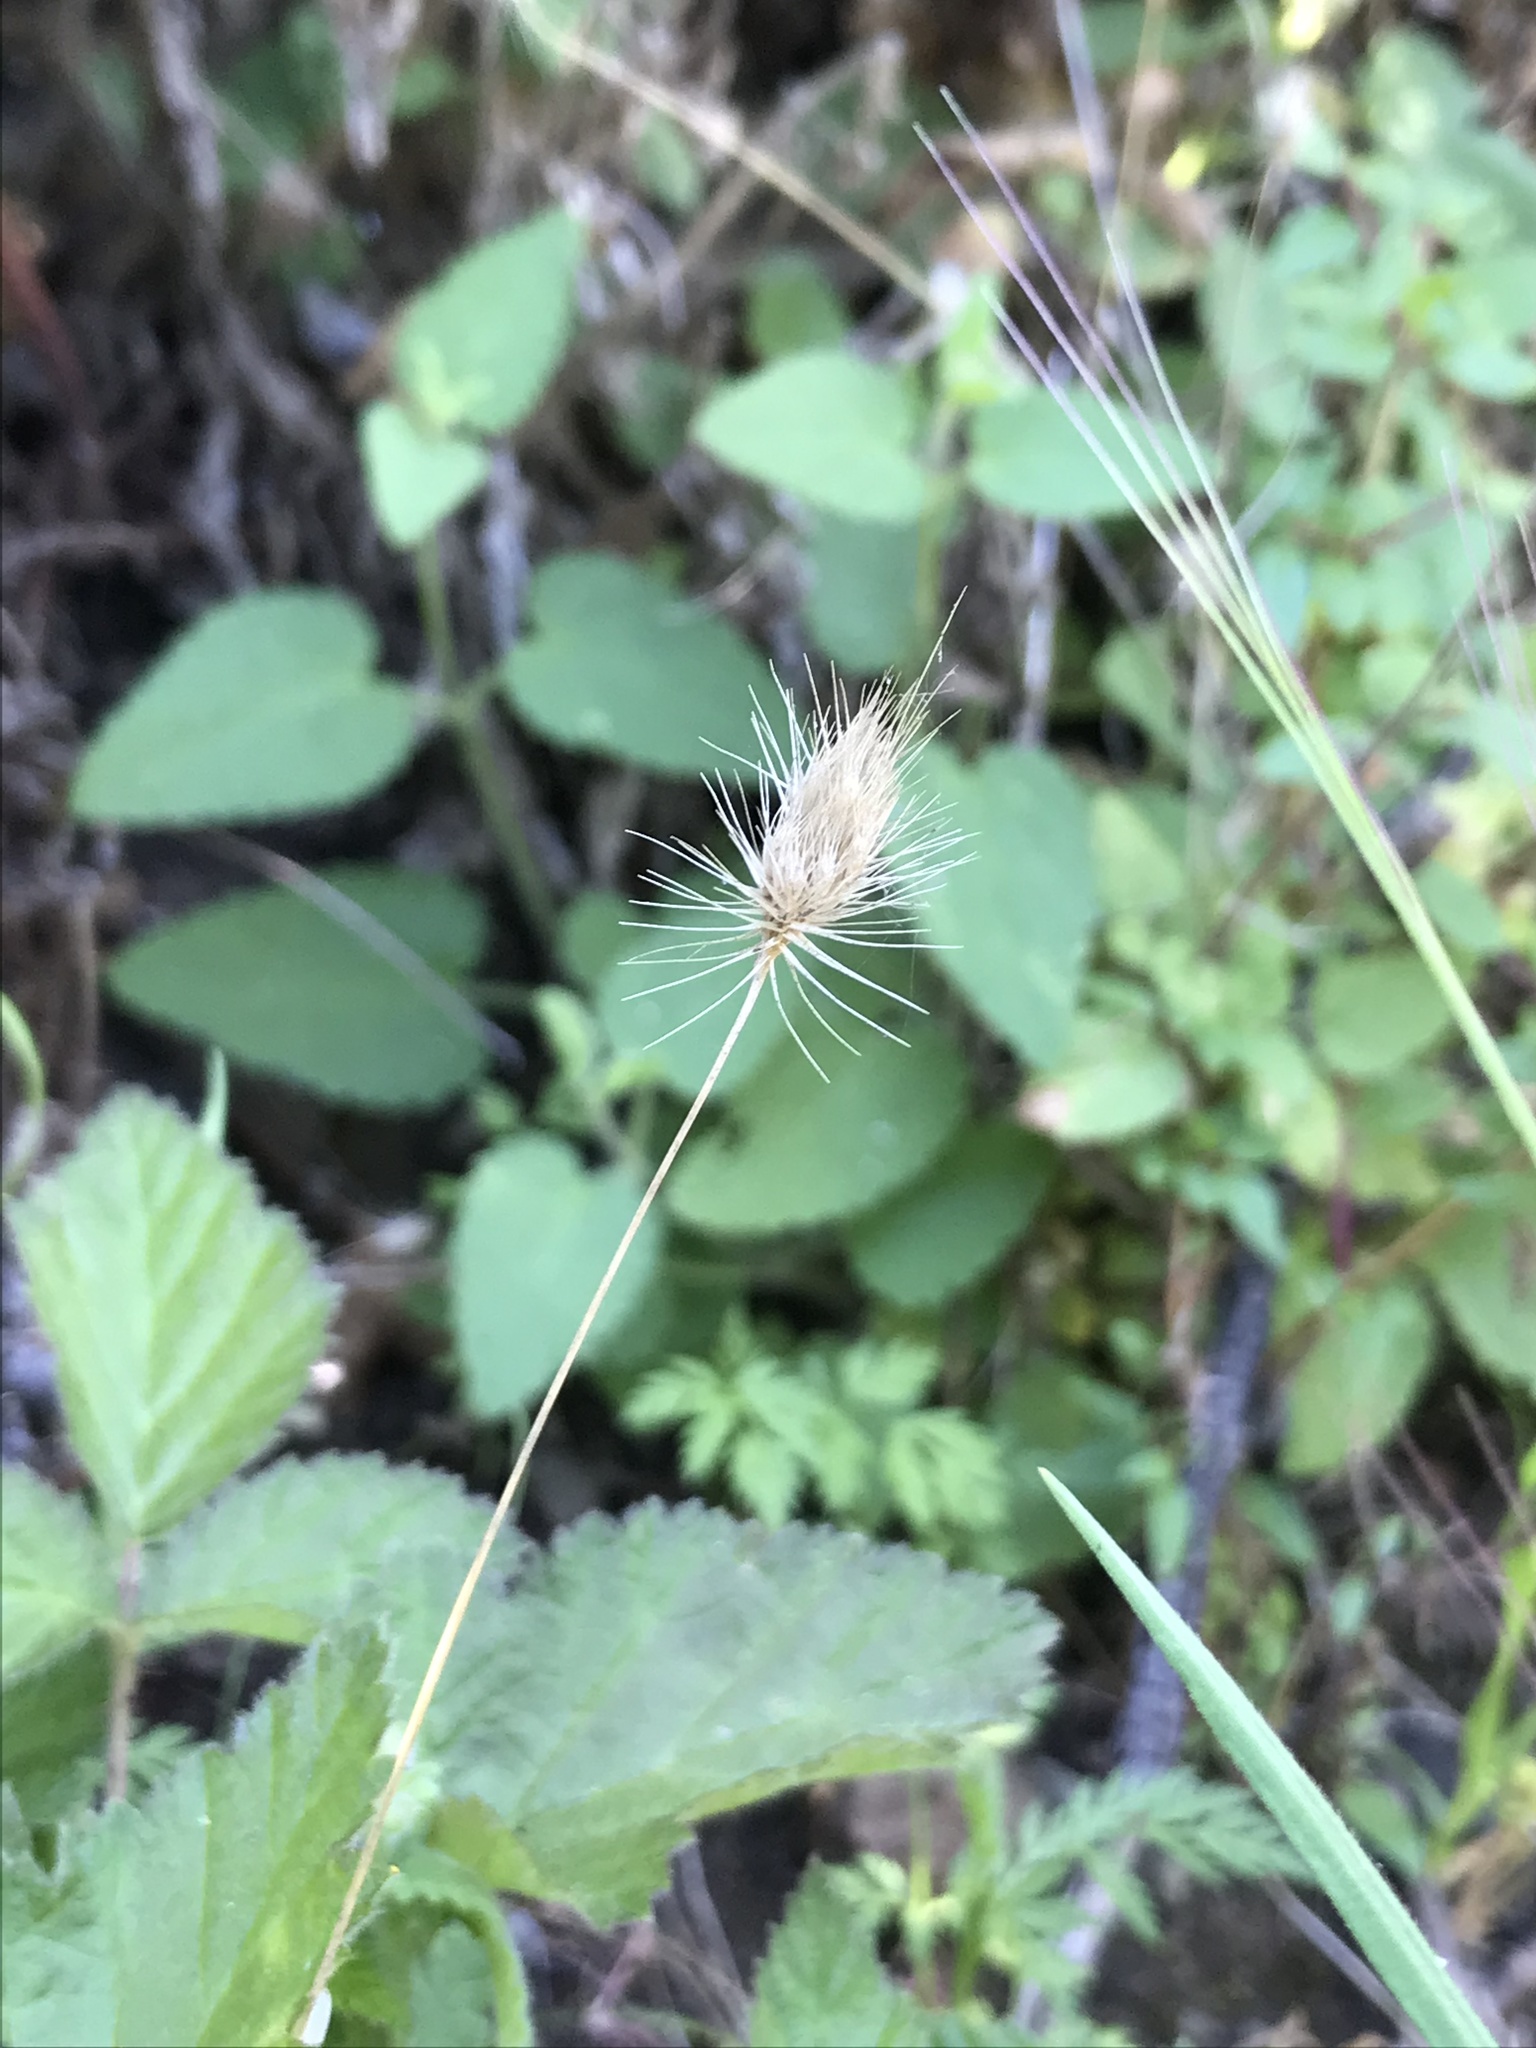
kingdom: Plantae
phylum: Tracheophyta
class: Liliopsida
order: Poales
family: Poaceae
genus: Cynosurus
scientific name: Cynosurus echinatus
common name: Rough dog's-tail
